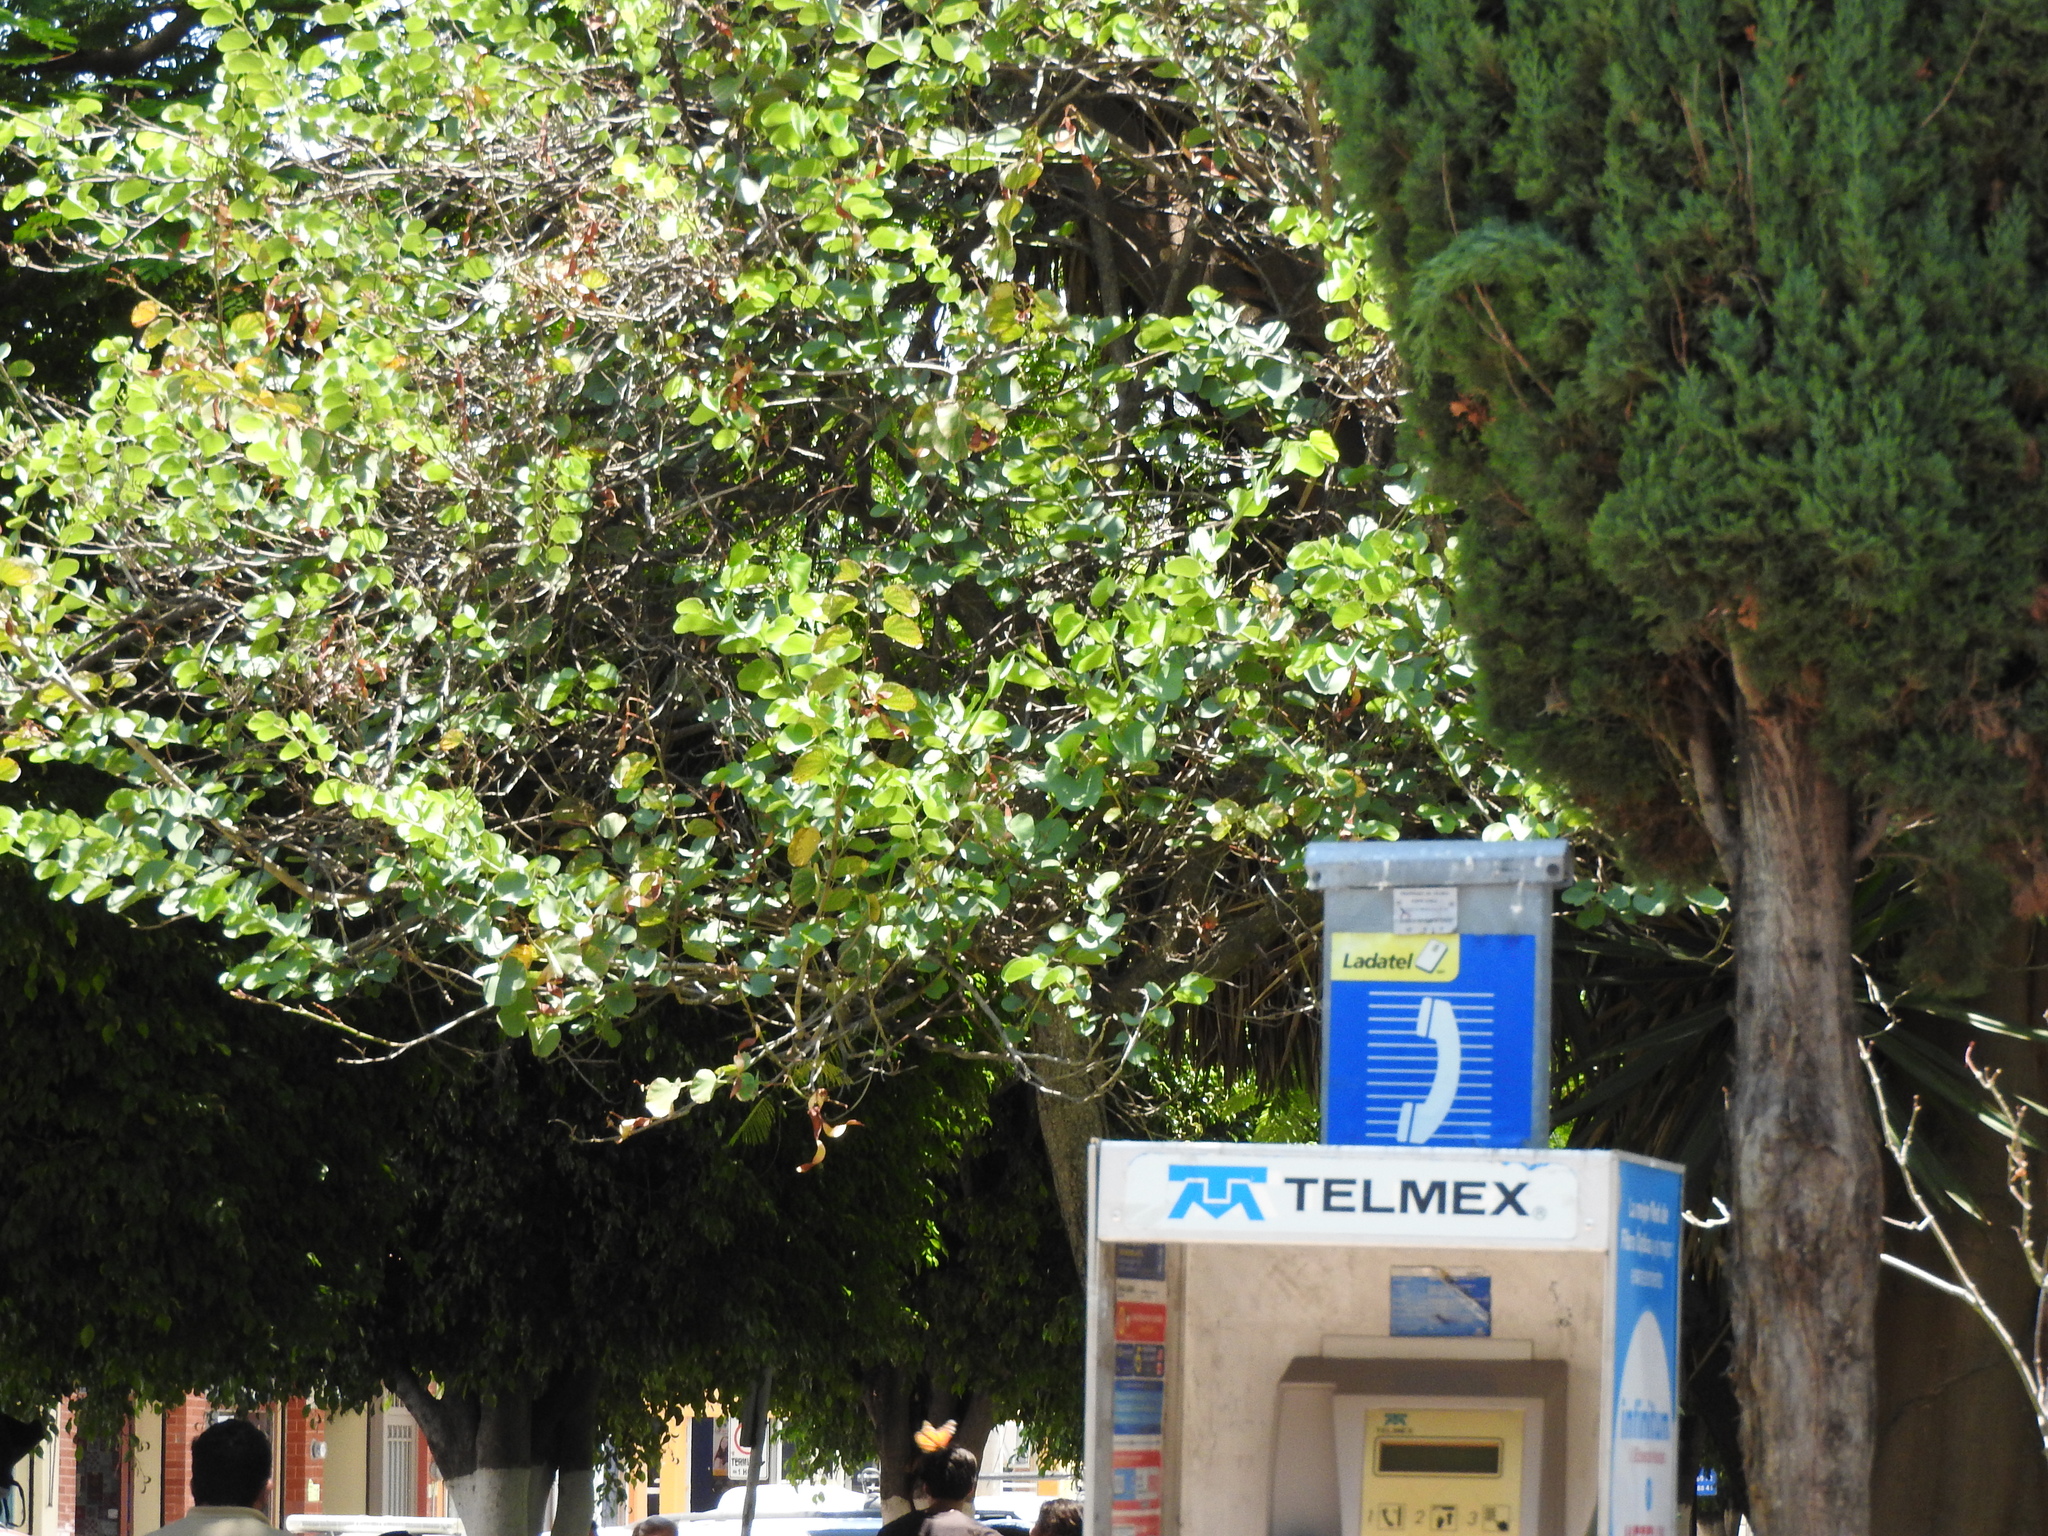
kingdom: Animalia
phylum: Arthropoda
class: Insecta
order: Lepidoptera
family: Nymphalidae
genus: Danaus
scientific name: Danaus plexippus
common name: Monarch
